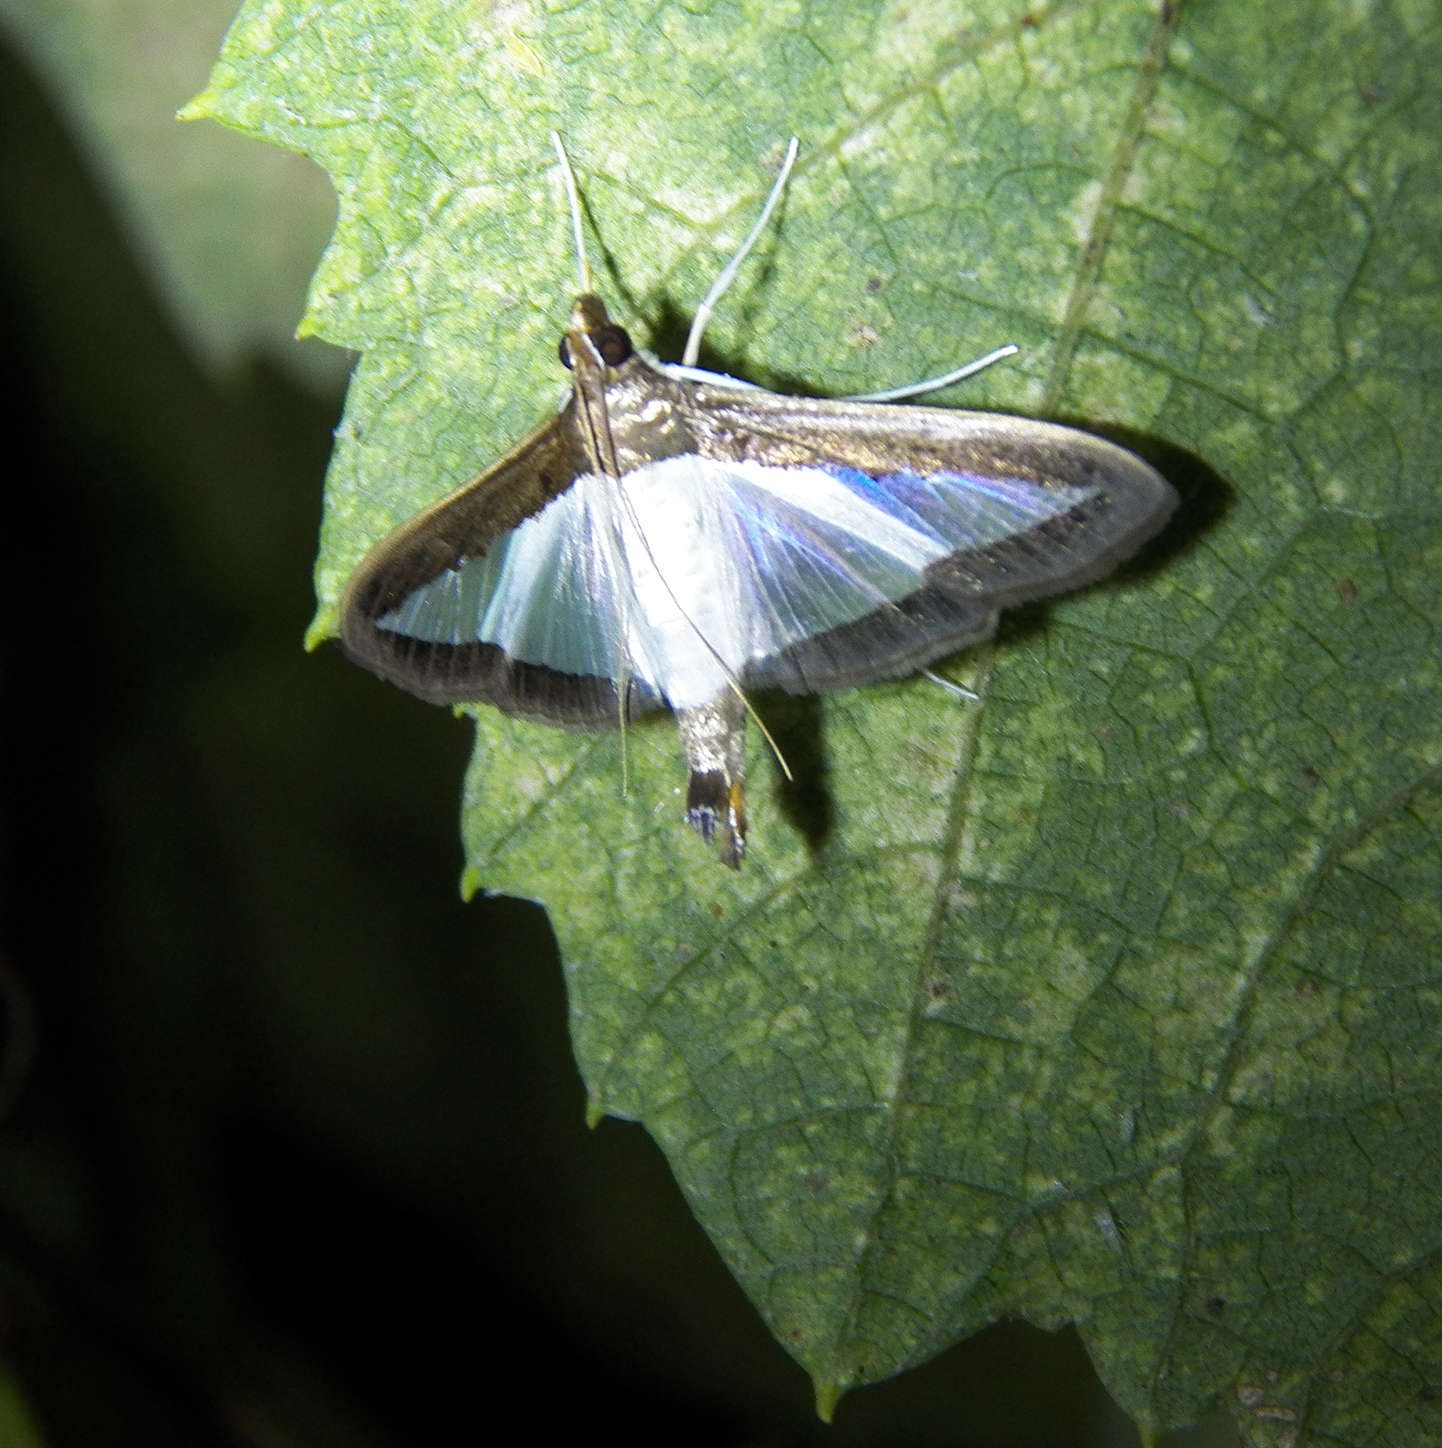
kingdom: Animalia
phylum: Arthropoda
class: Insecta
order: Lepidoptera
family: Crambidae
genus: Diaphania
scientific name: Diaphania hyalinata
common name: Melonworm
